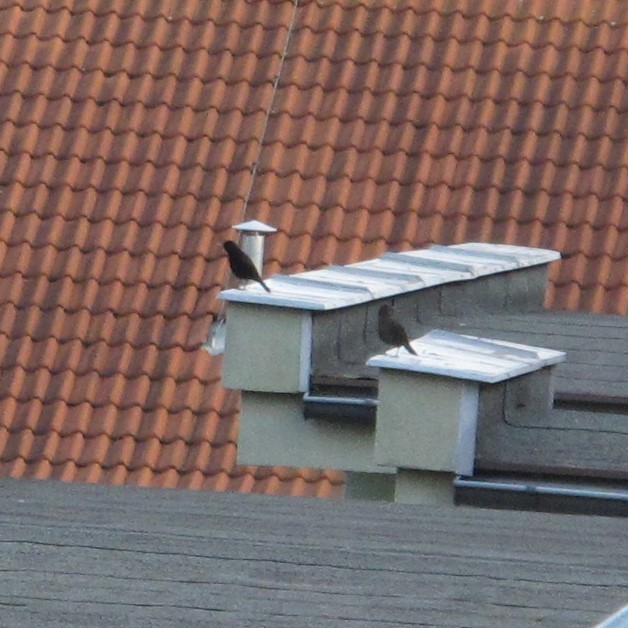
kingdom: Animalia
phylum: Chordata
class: Aves
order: Passeriformes
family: Turdidae
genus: Turdus
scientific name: Turdus merula
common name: Common blackbird
